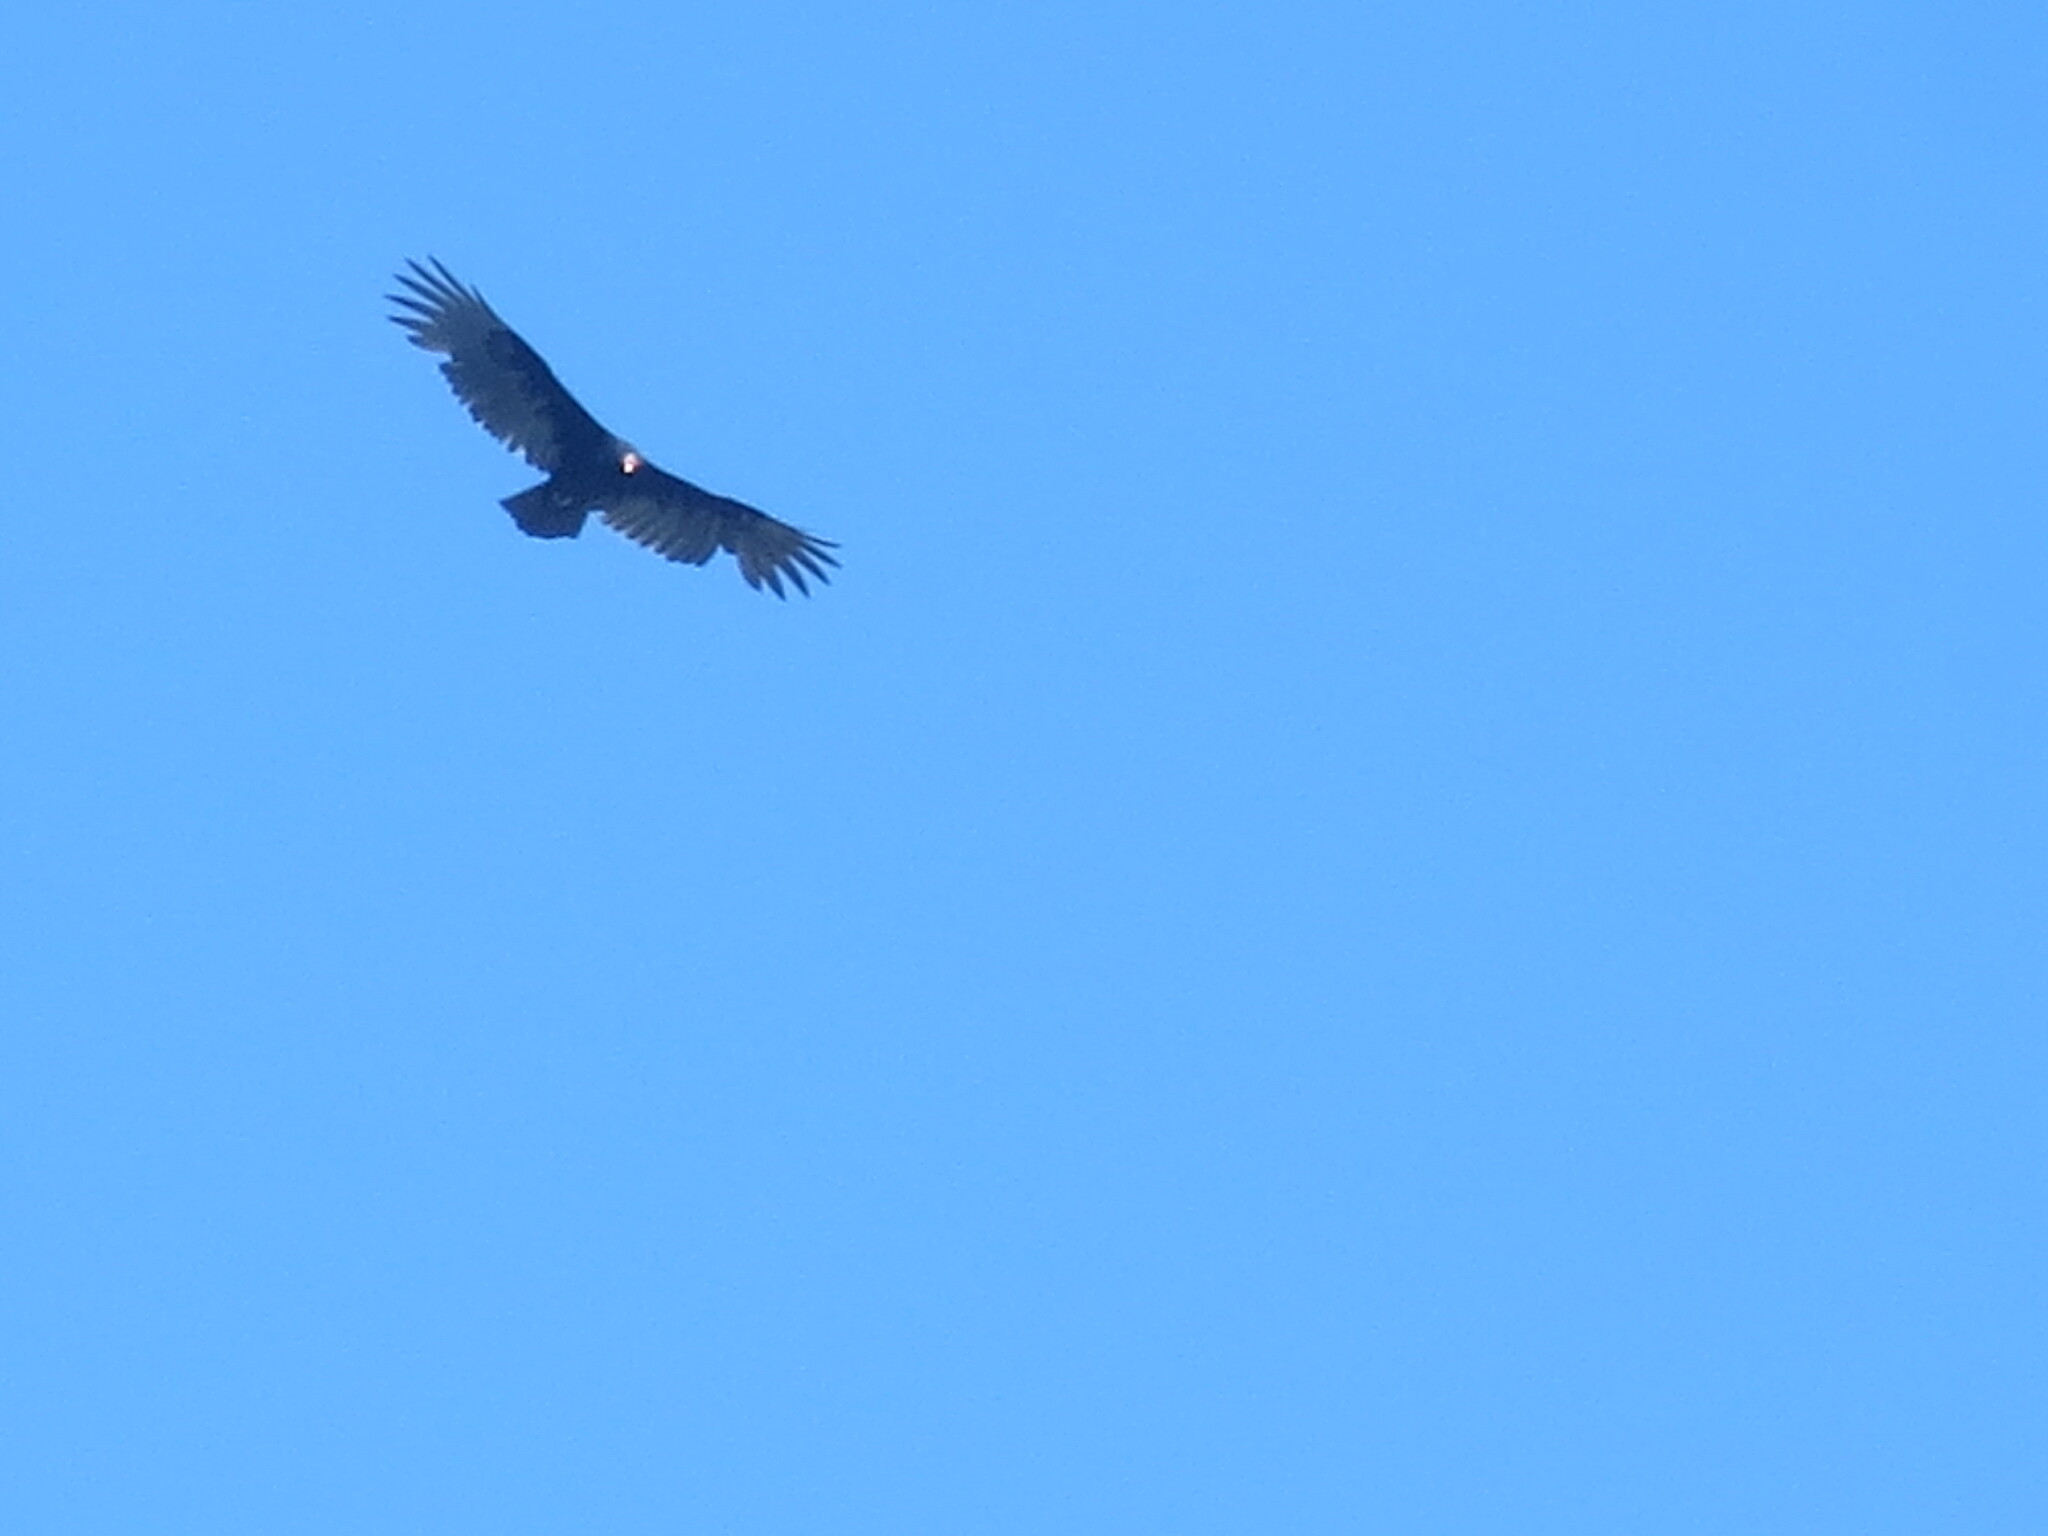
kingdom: Animalia
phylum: Chordata
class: Aves
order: Accipitriformes
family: Cathartidae
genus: Cathartes
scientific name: Cathartes aura
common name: Turkey vulture
